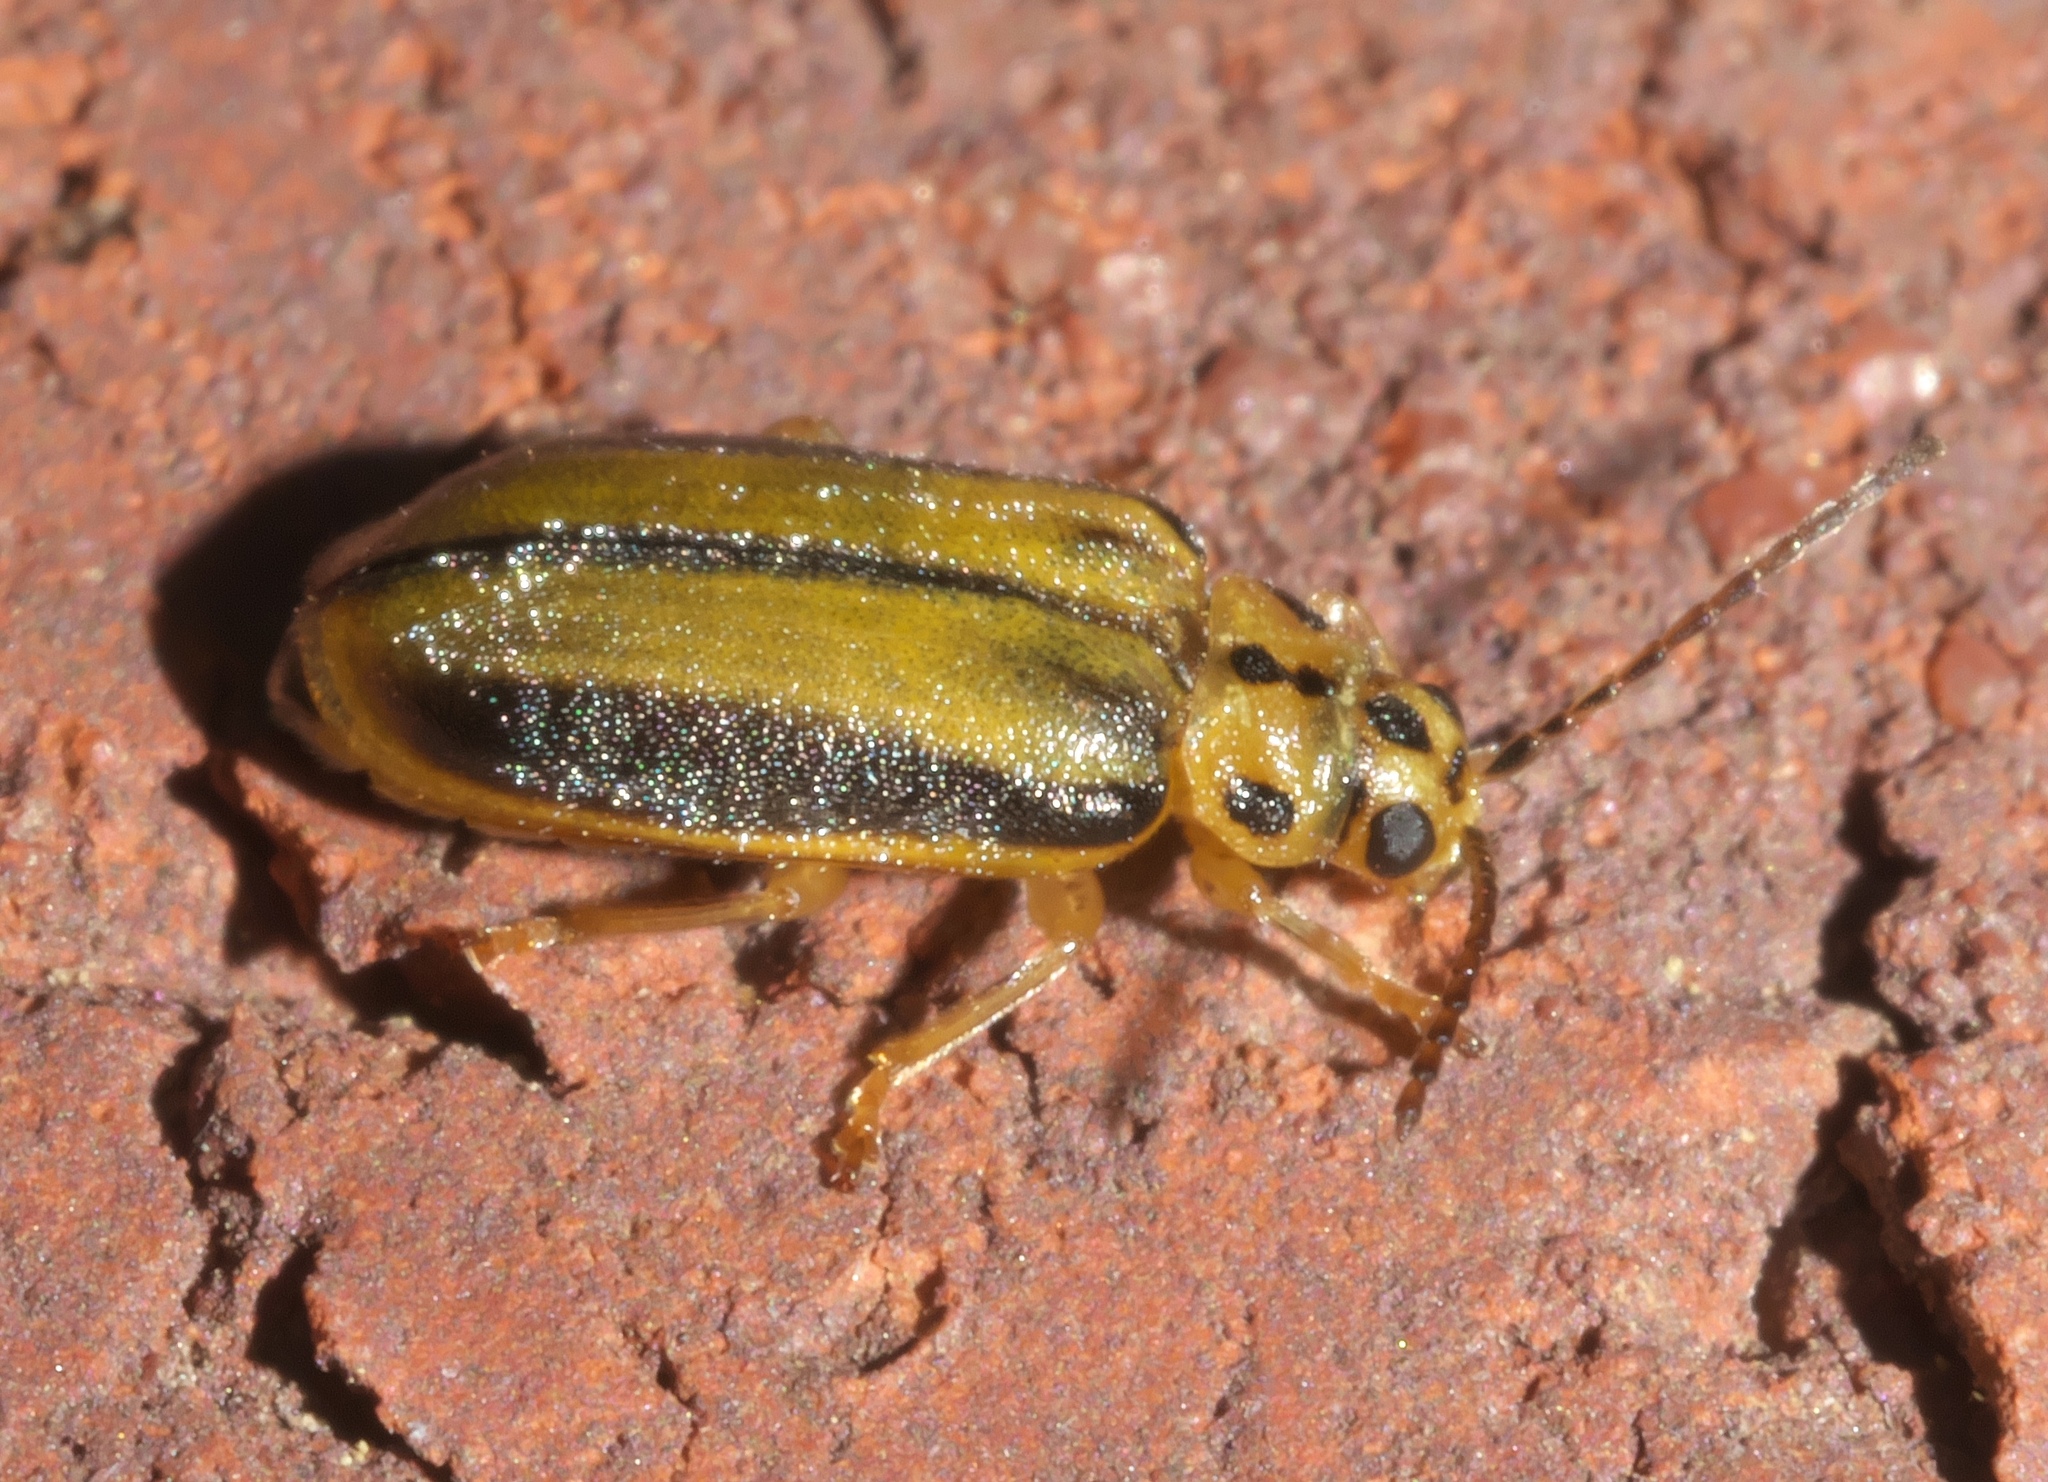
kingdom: Animalia
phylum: Arthropoda
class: Insecta
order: Coleoptera
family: Chrysomelidae
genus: Xanthogaleruca
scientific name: Xanthogaleruca luteola
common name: Elm leaf beetle
